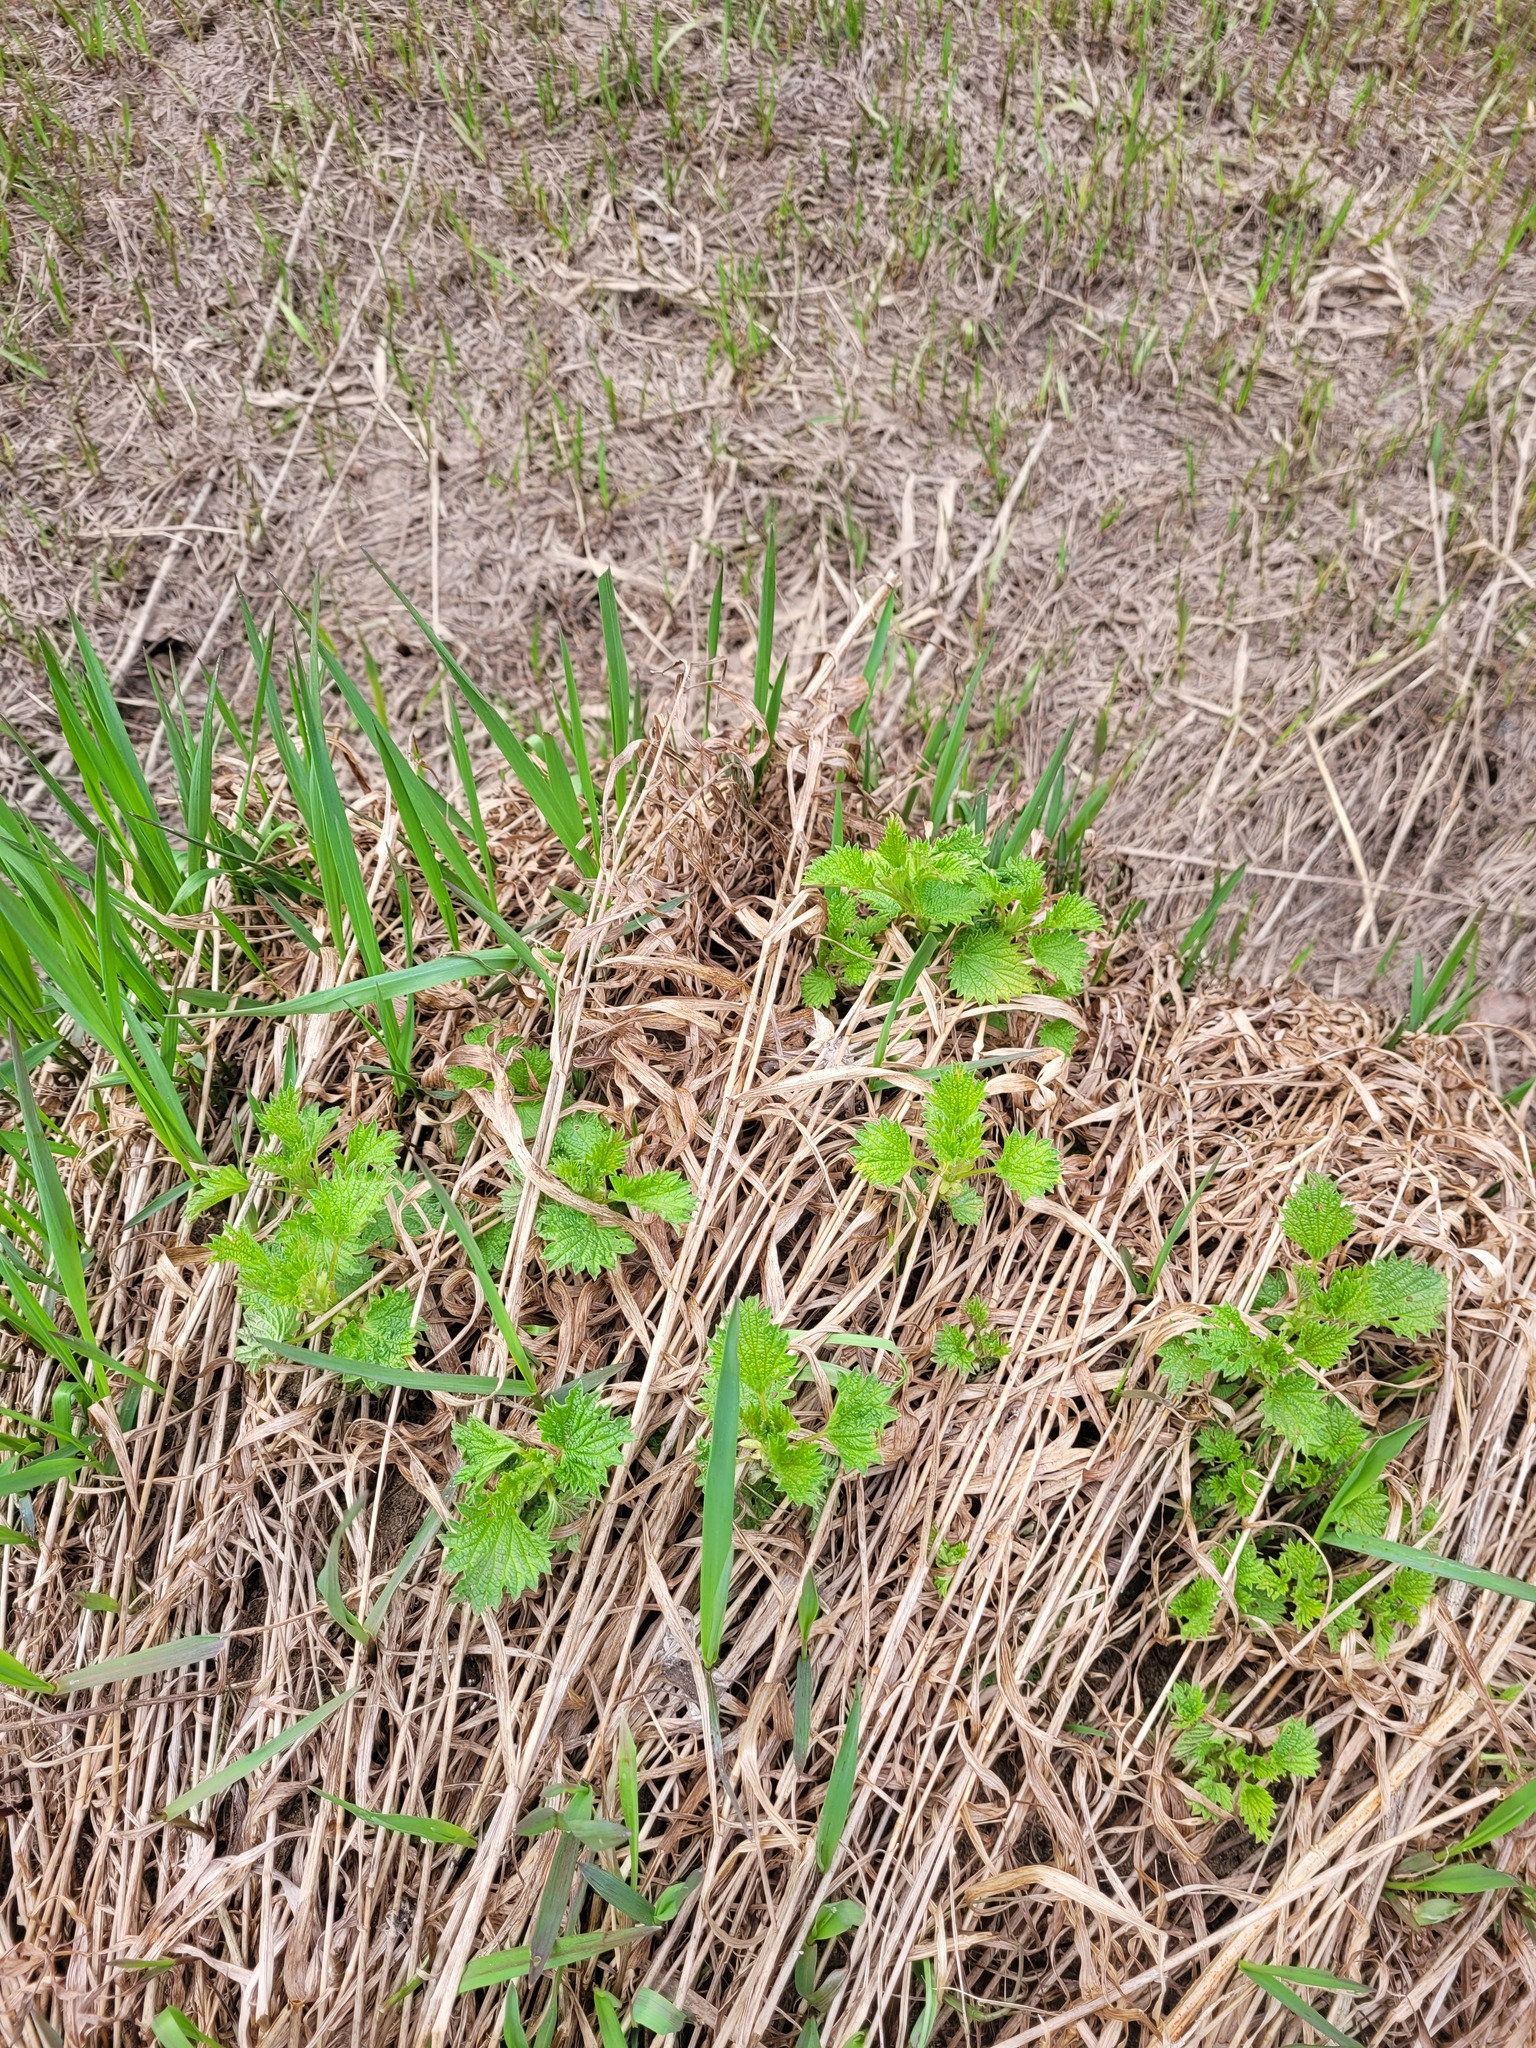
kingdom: Plantae
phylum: Tracheophyta
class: Magnoliopsida
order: Rosales
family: Urticaceae
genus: Urtica
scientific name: Urtica dioica
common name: Common nettle
